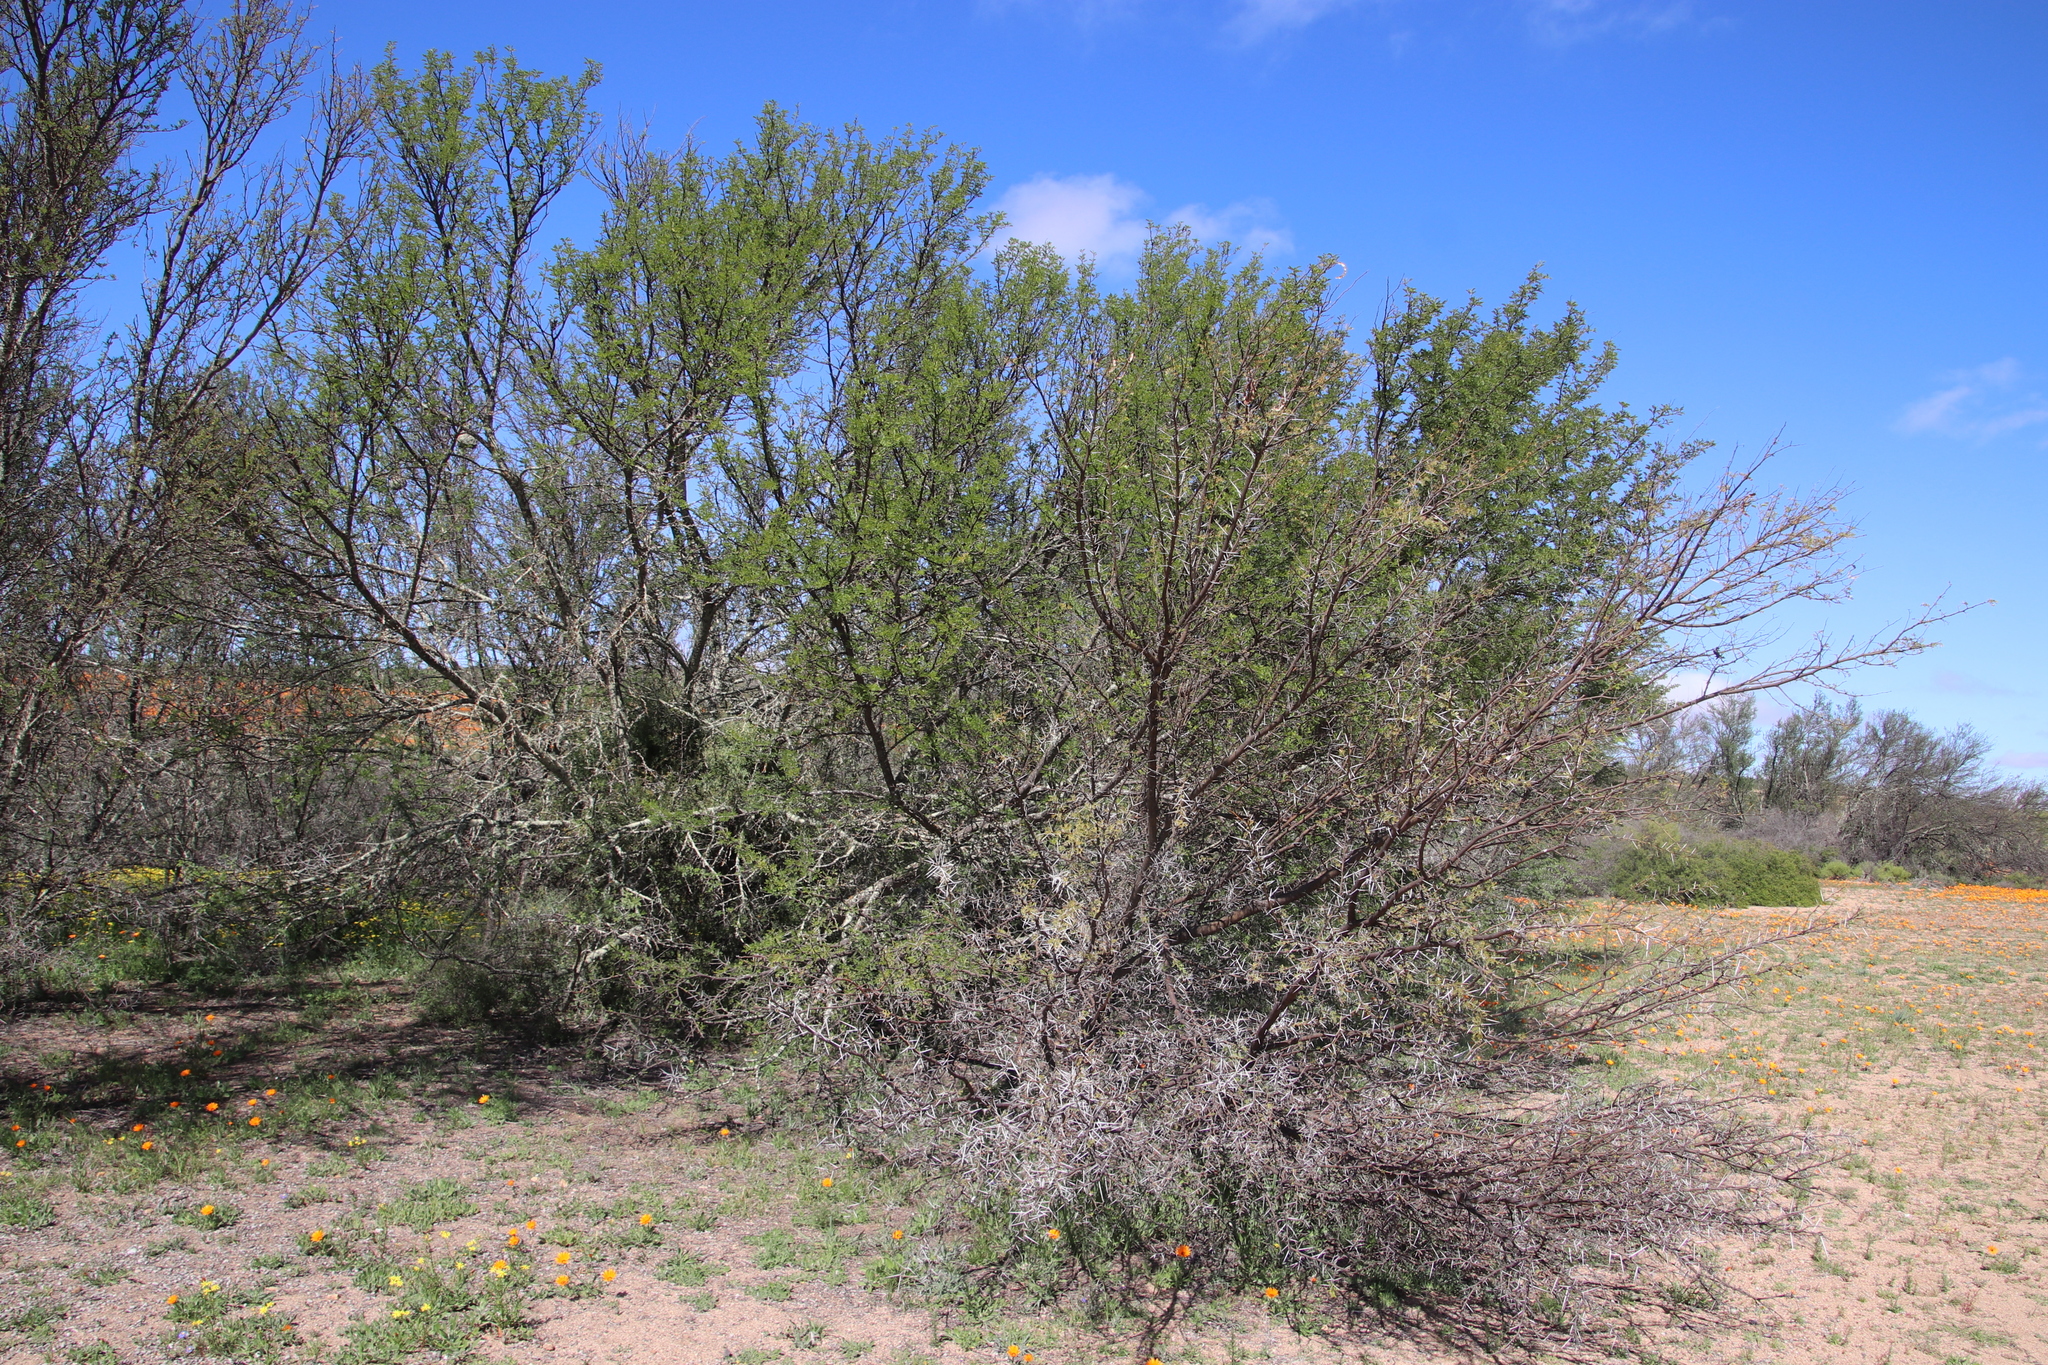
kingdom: Plantae
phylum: Tracheophyta
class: Magnoliopsida
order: Fabales
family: Fabaceae
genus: Vachellia
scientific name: Vachellia karroo
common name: Sweet thorn
